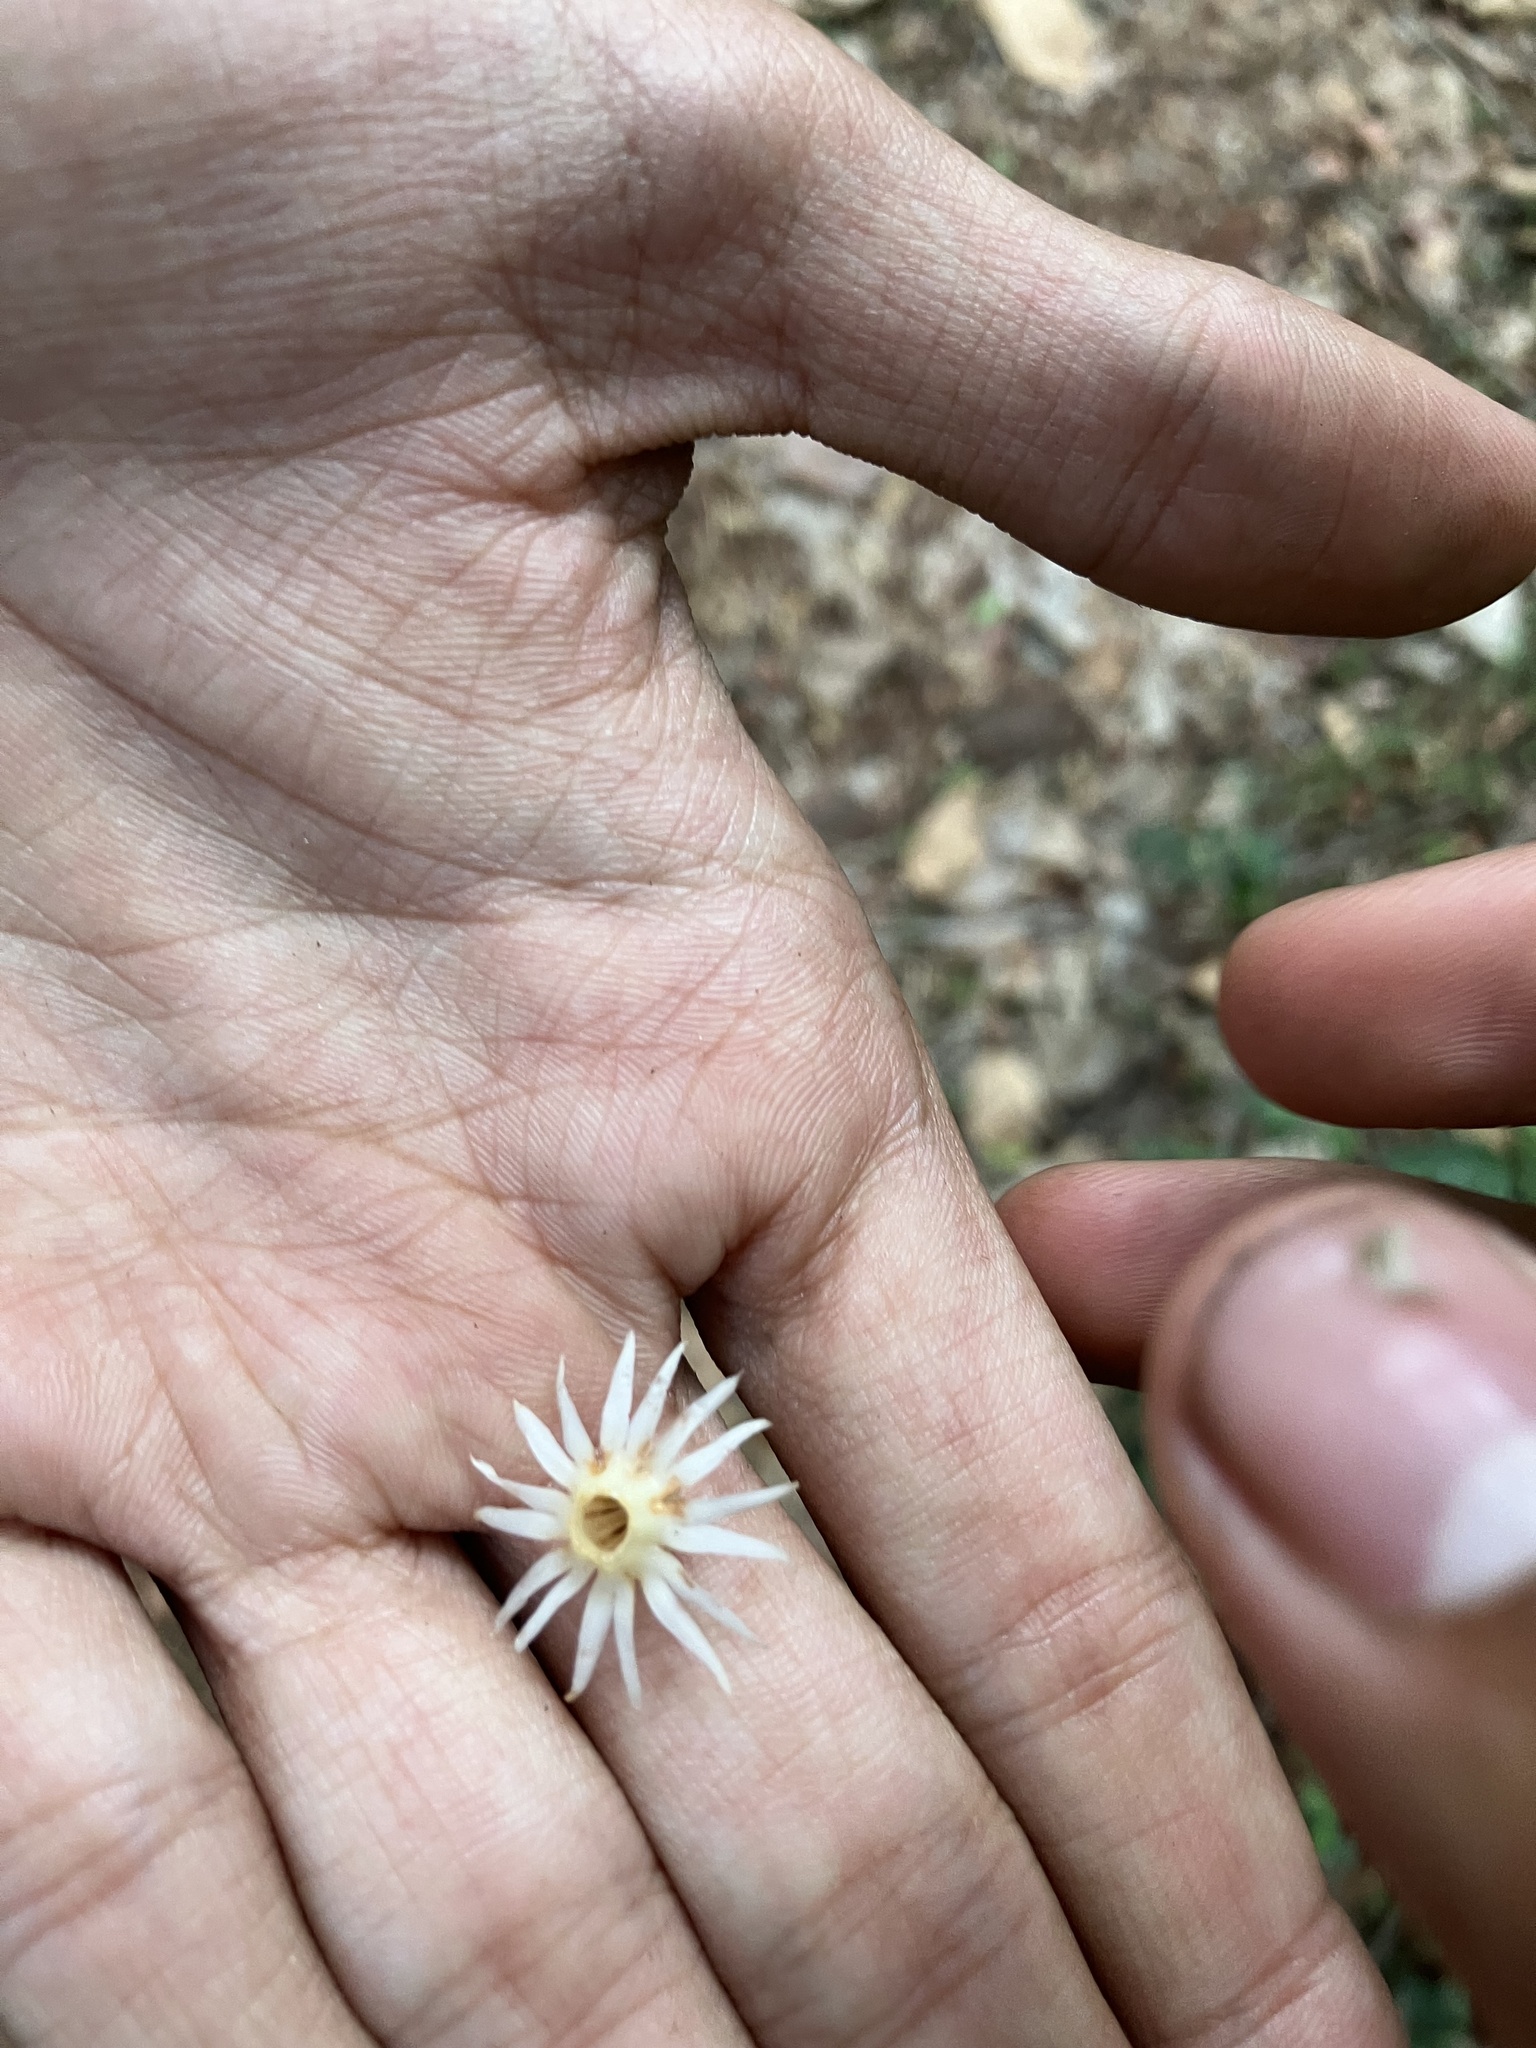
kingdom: Plantae
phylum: Tracheophyta
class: Magnoliopsida
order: Ericales
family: Sapotaceae
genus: Mimusops
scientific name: Mimusops elengi
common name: Spanish cherry
